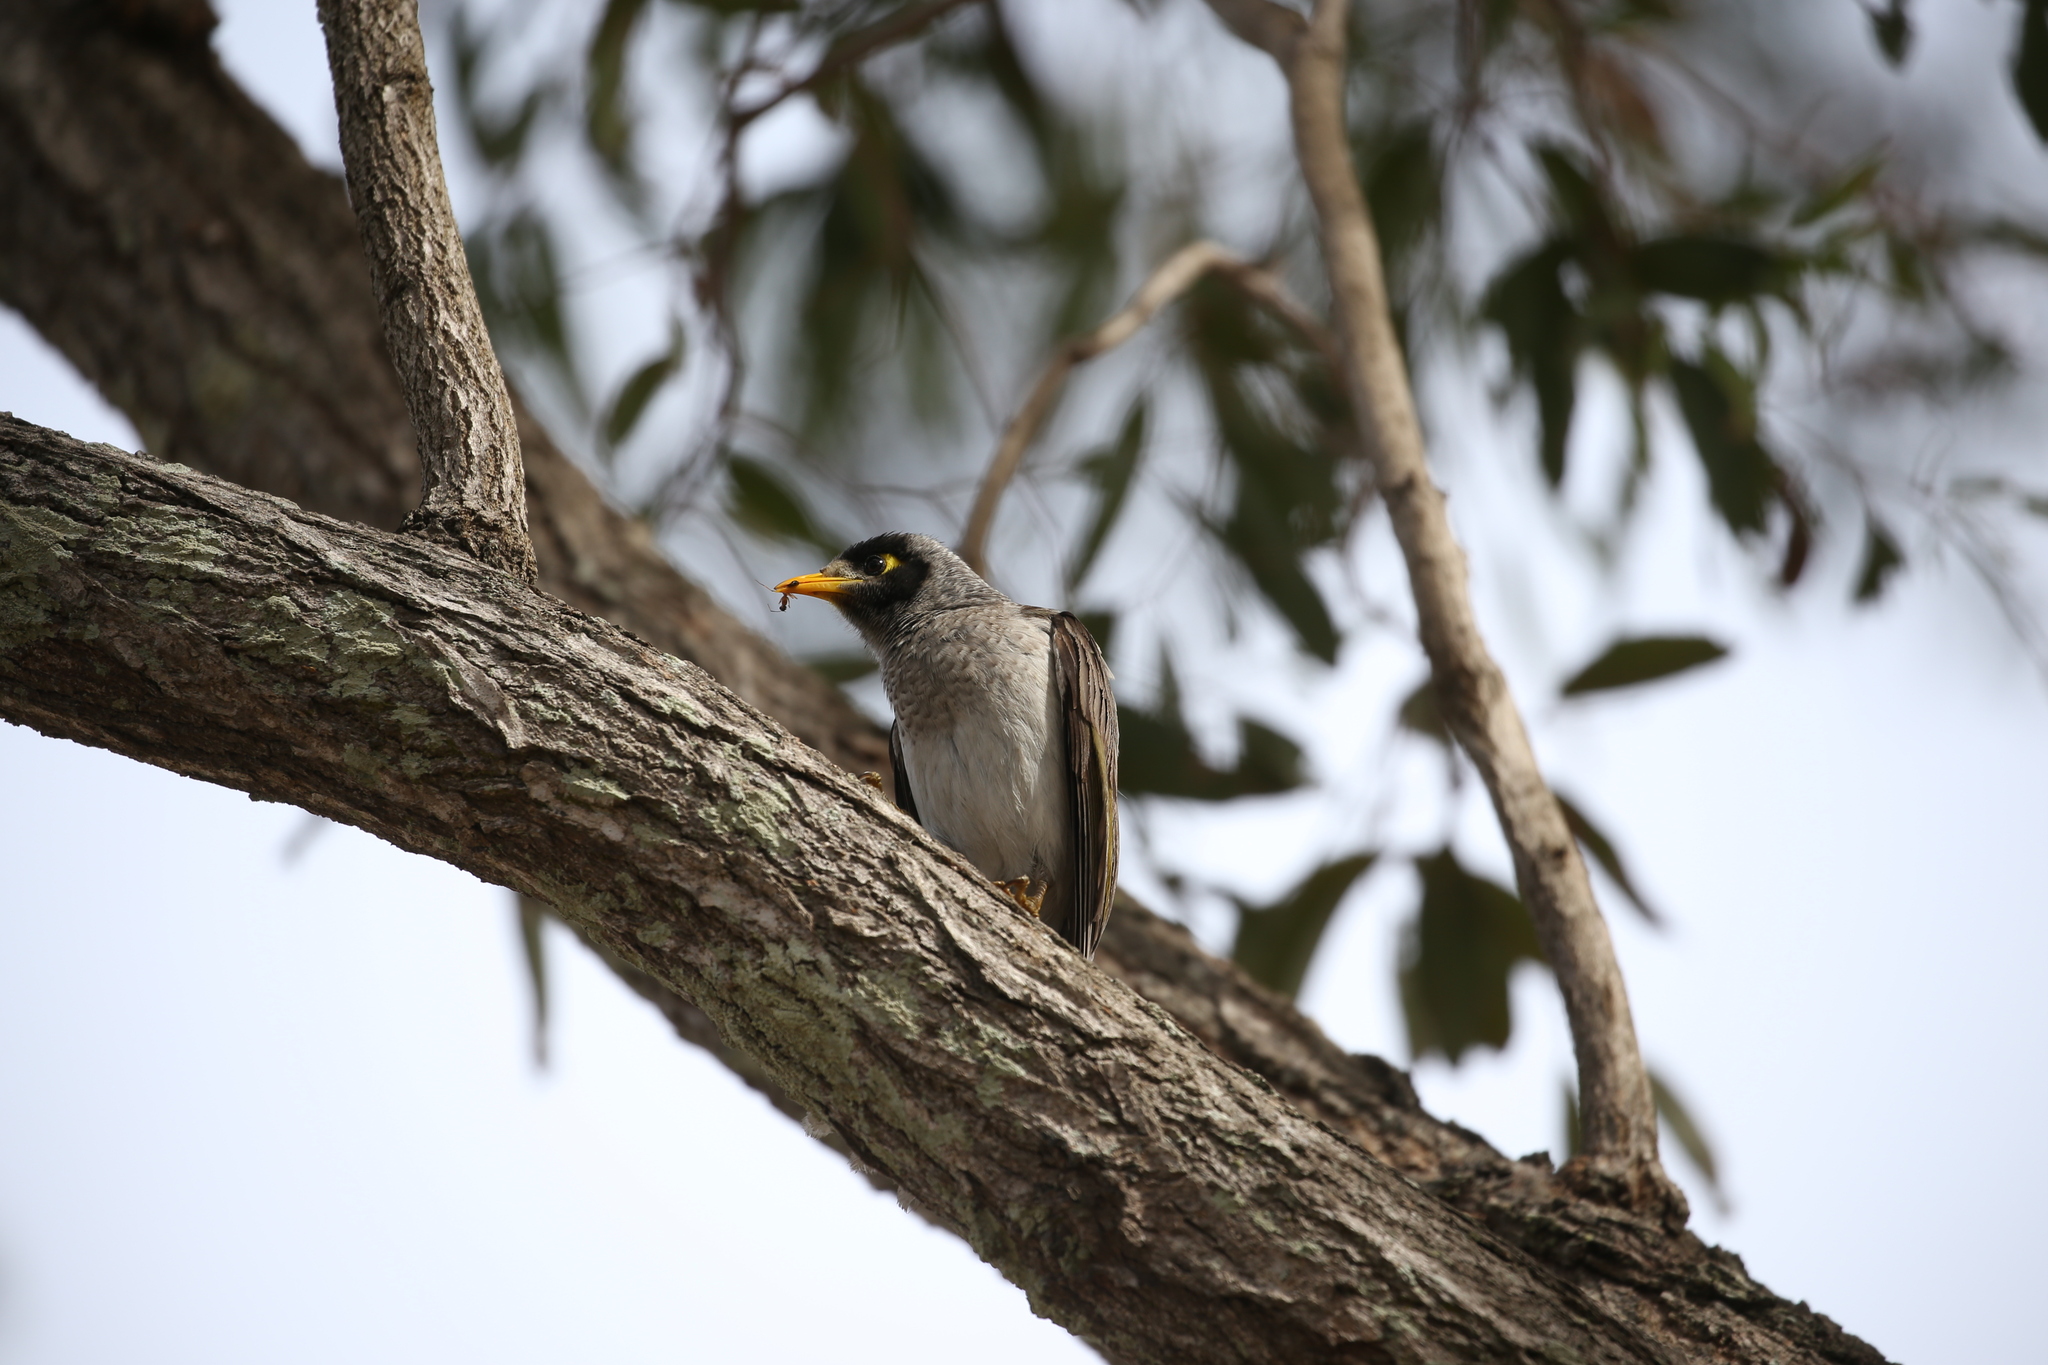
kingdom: Animalia
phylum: Chordata
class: Aves
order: Passeriformes
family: Meliphagidae
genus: Manorina
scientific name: Manorina melanocephala
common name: Noisy miner
